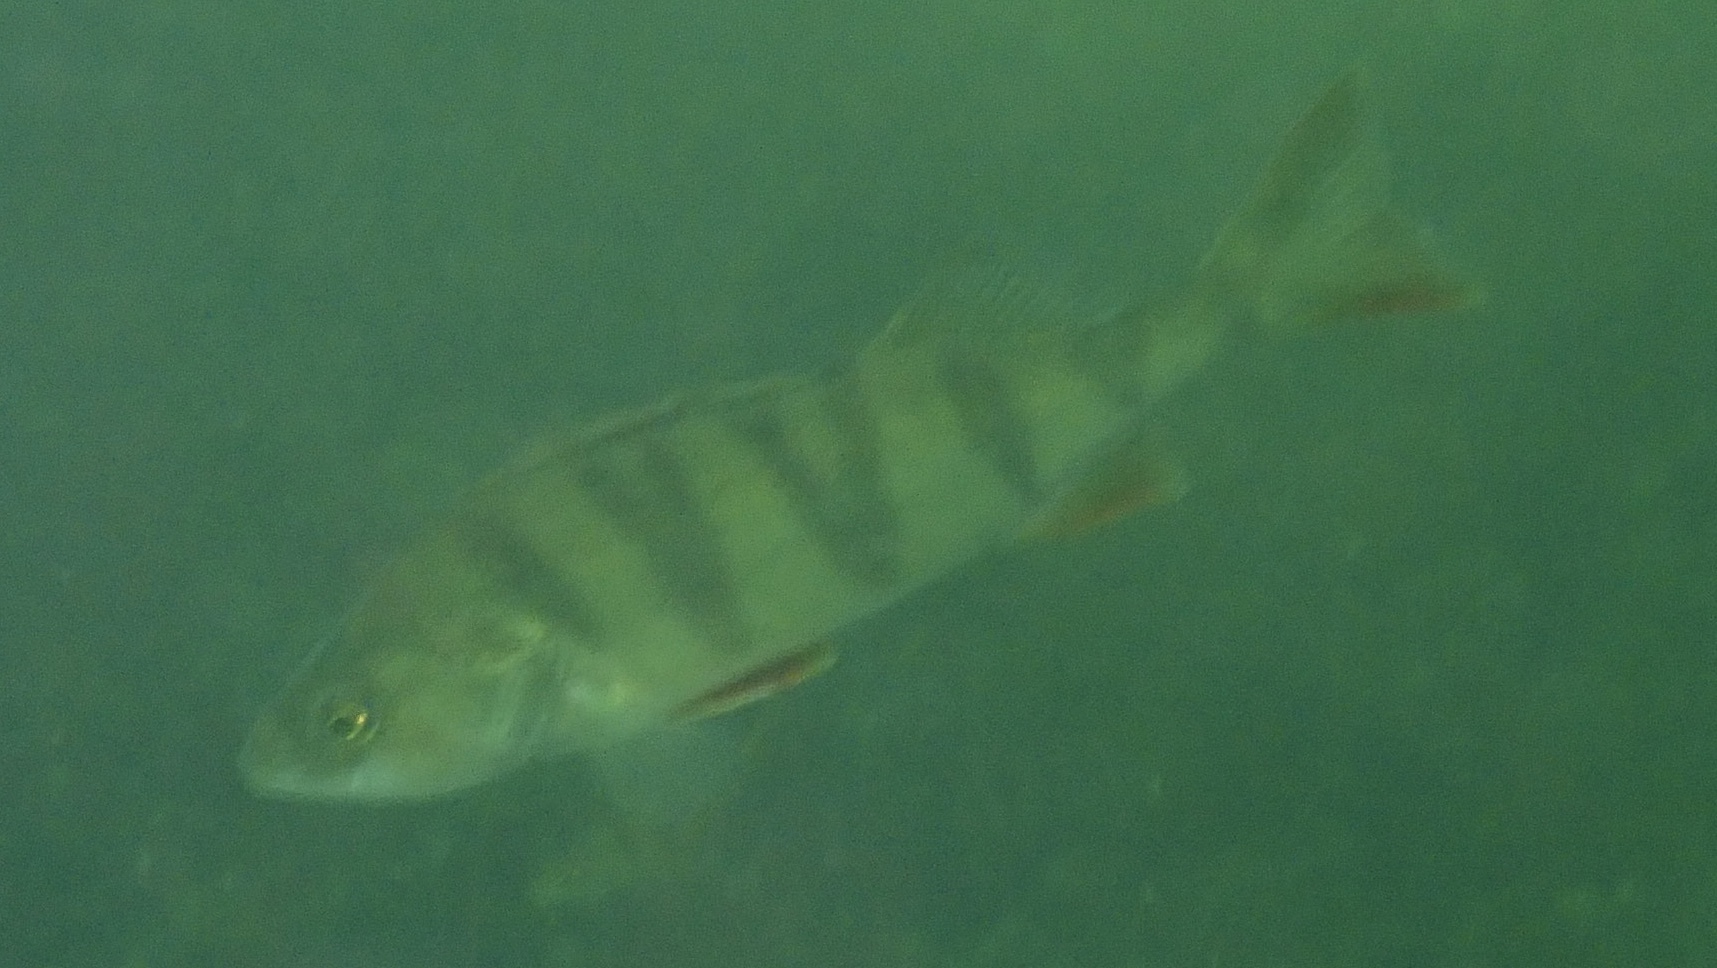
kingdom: Animalia
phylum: Chordata
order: Perciformes
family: Percidae
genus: Perca
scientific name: Perca fluviatilis
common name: Perch
